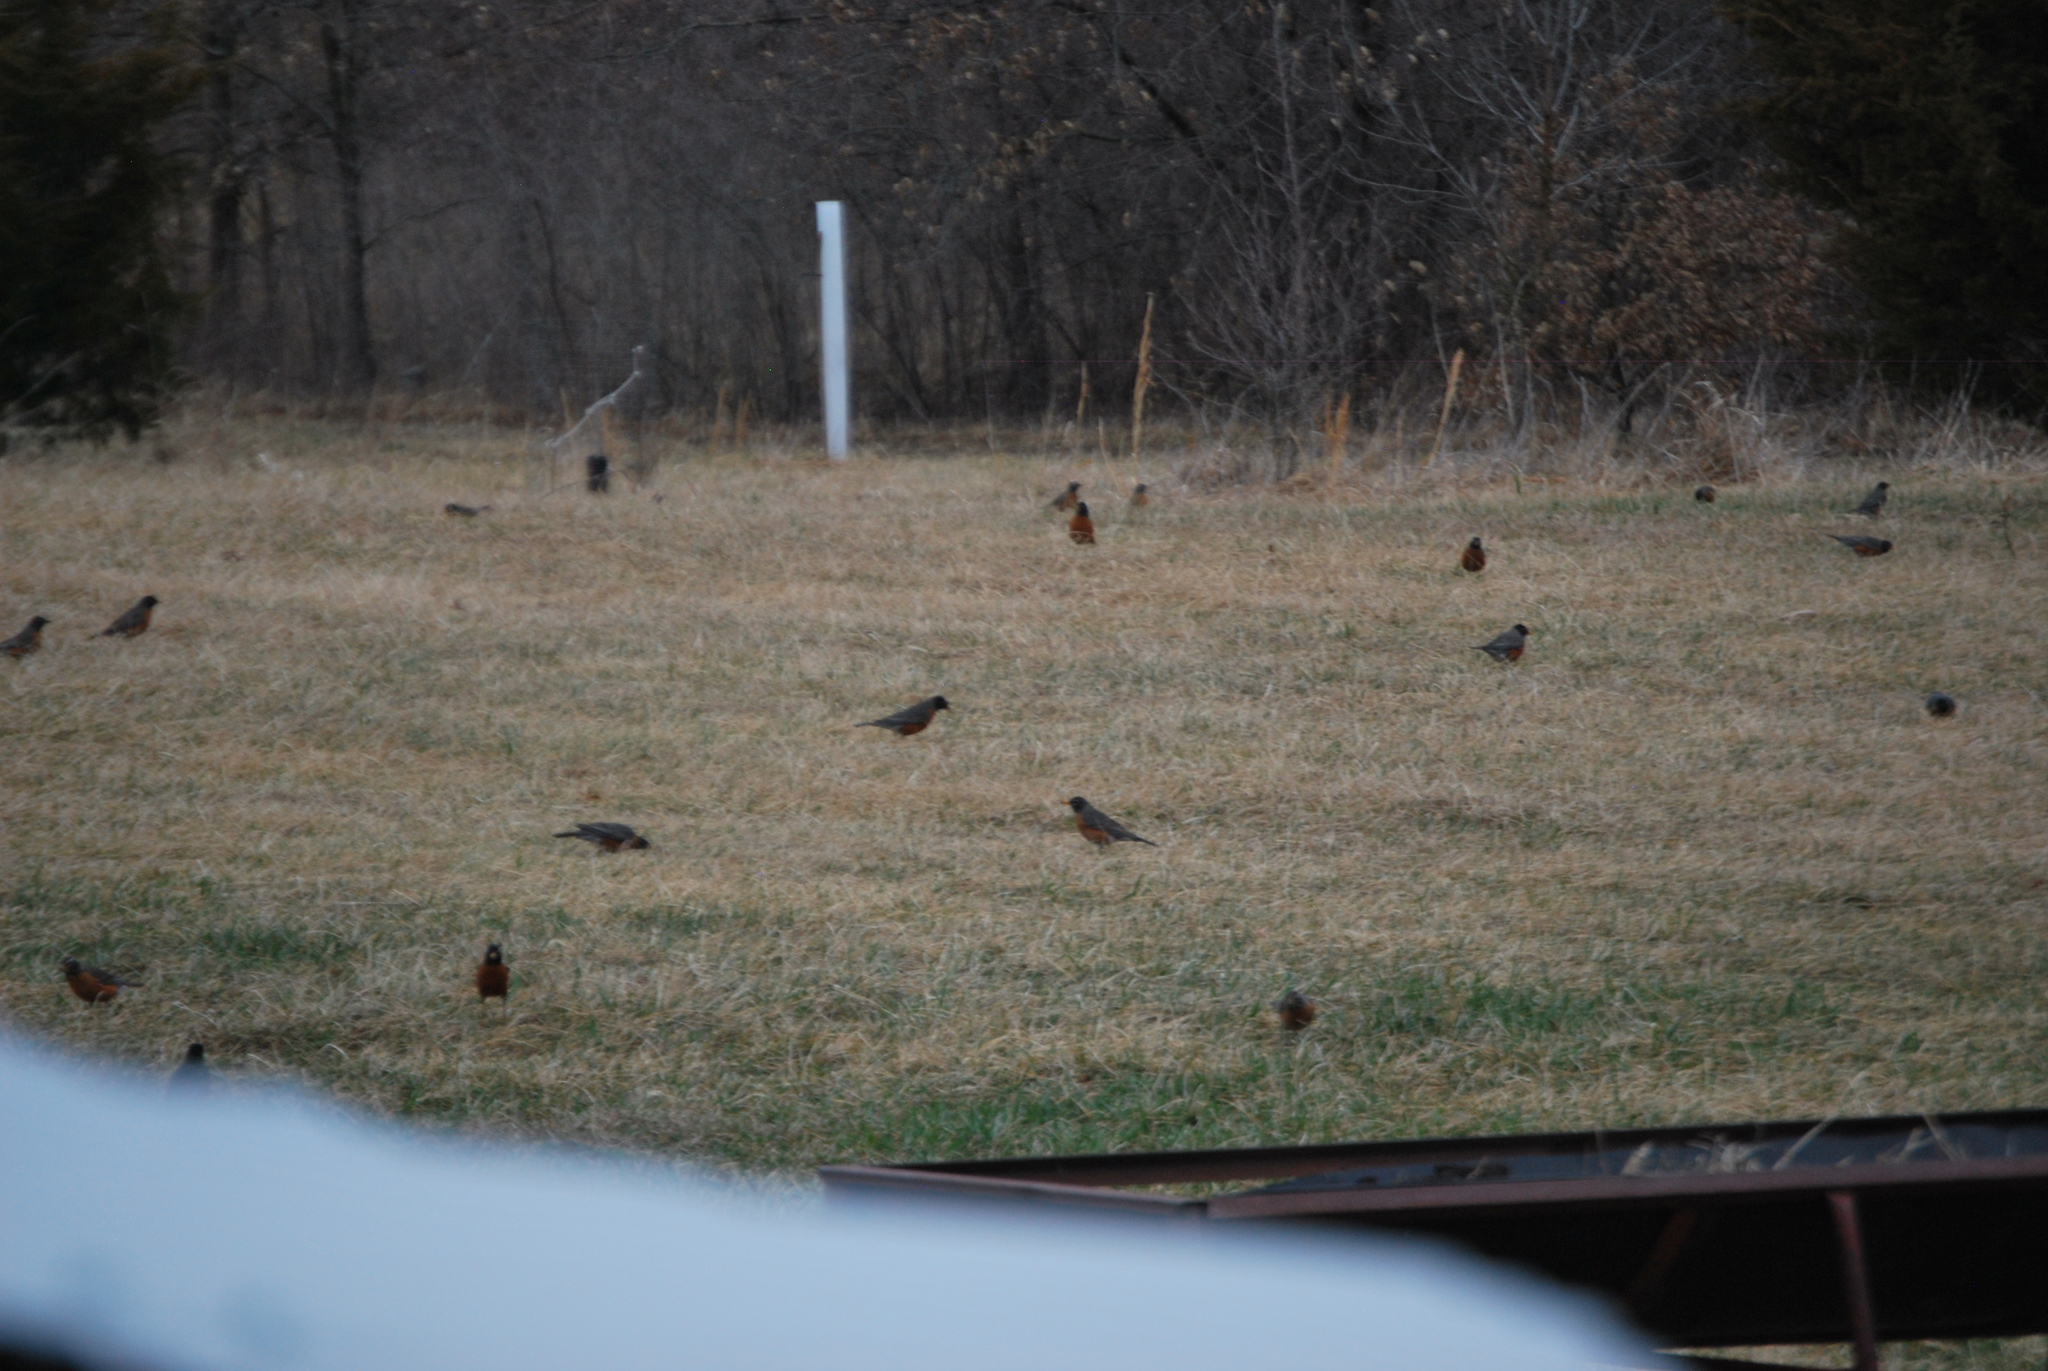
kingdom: Animalia
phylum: Chordata
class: Aves
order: Passeriformes
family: Turdidae
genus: Turdus
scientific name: Turdus migratorius
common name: American robin
